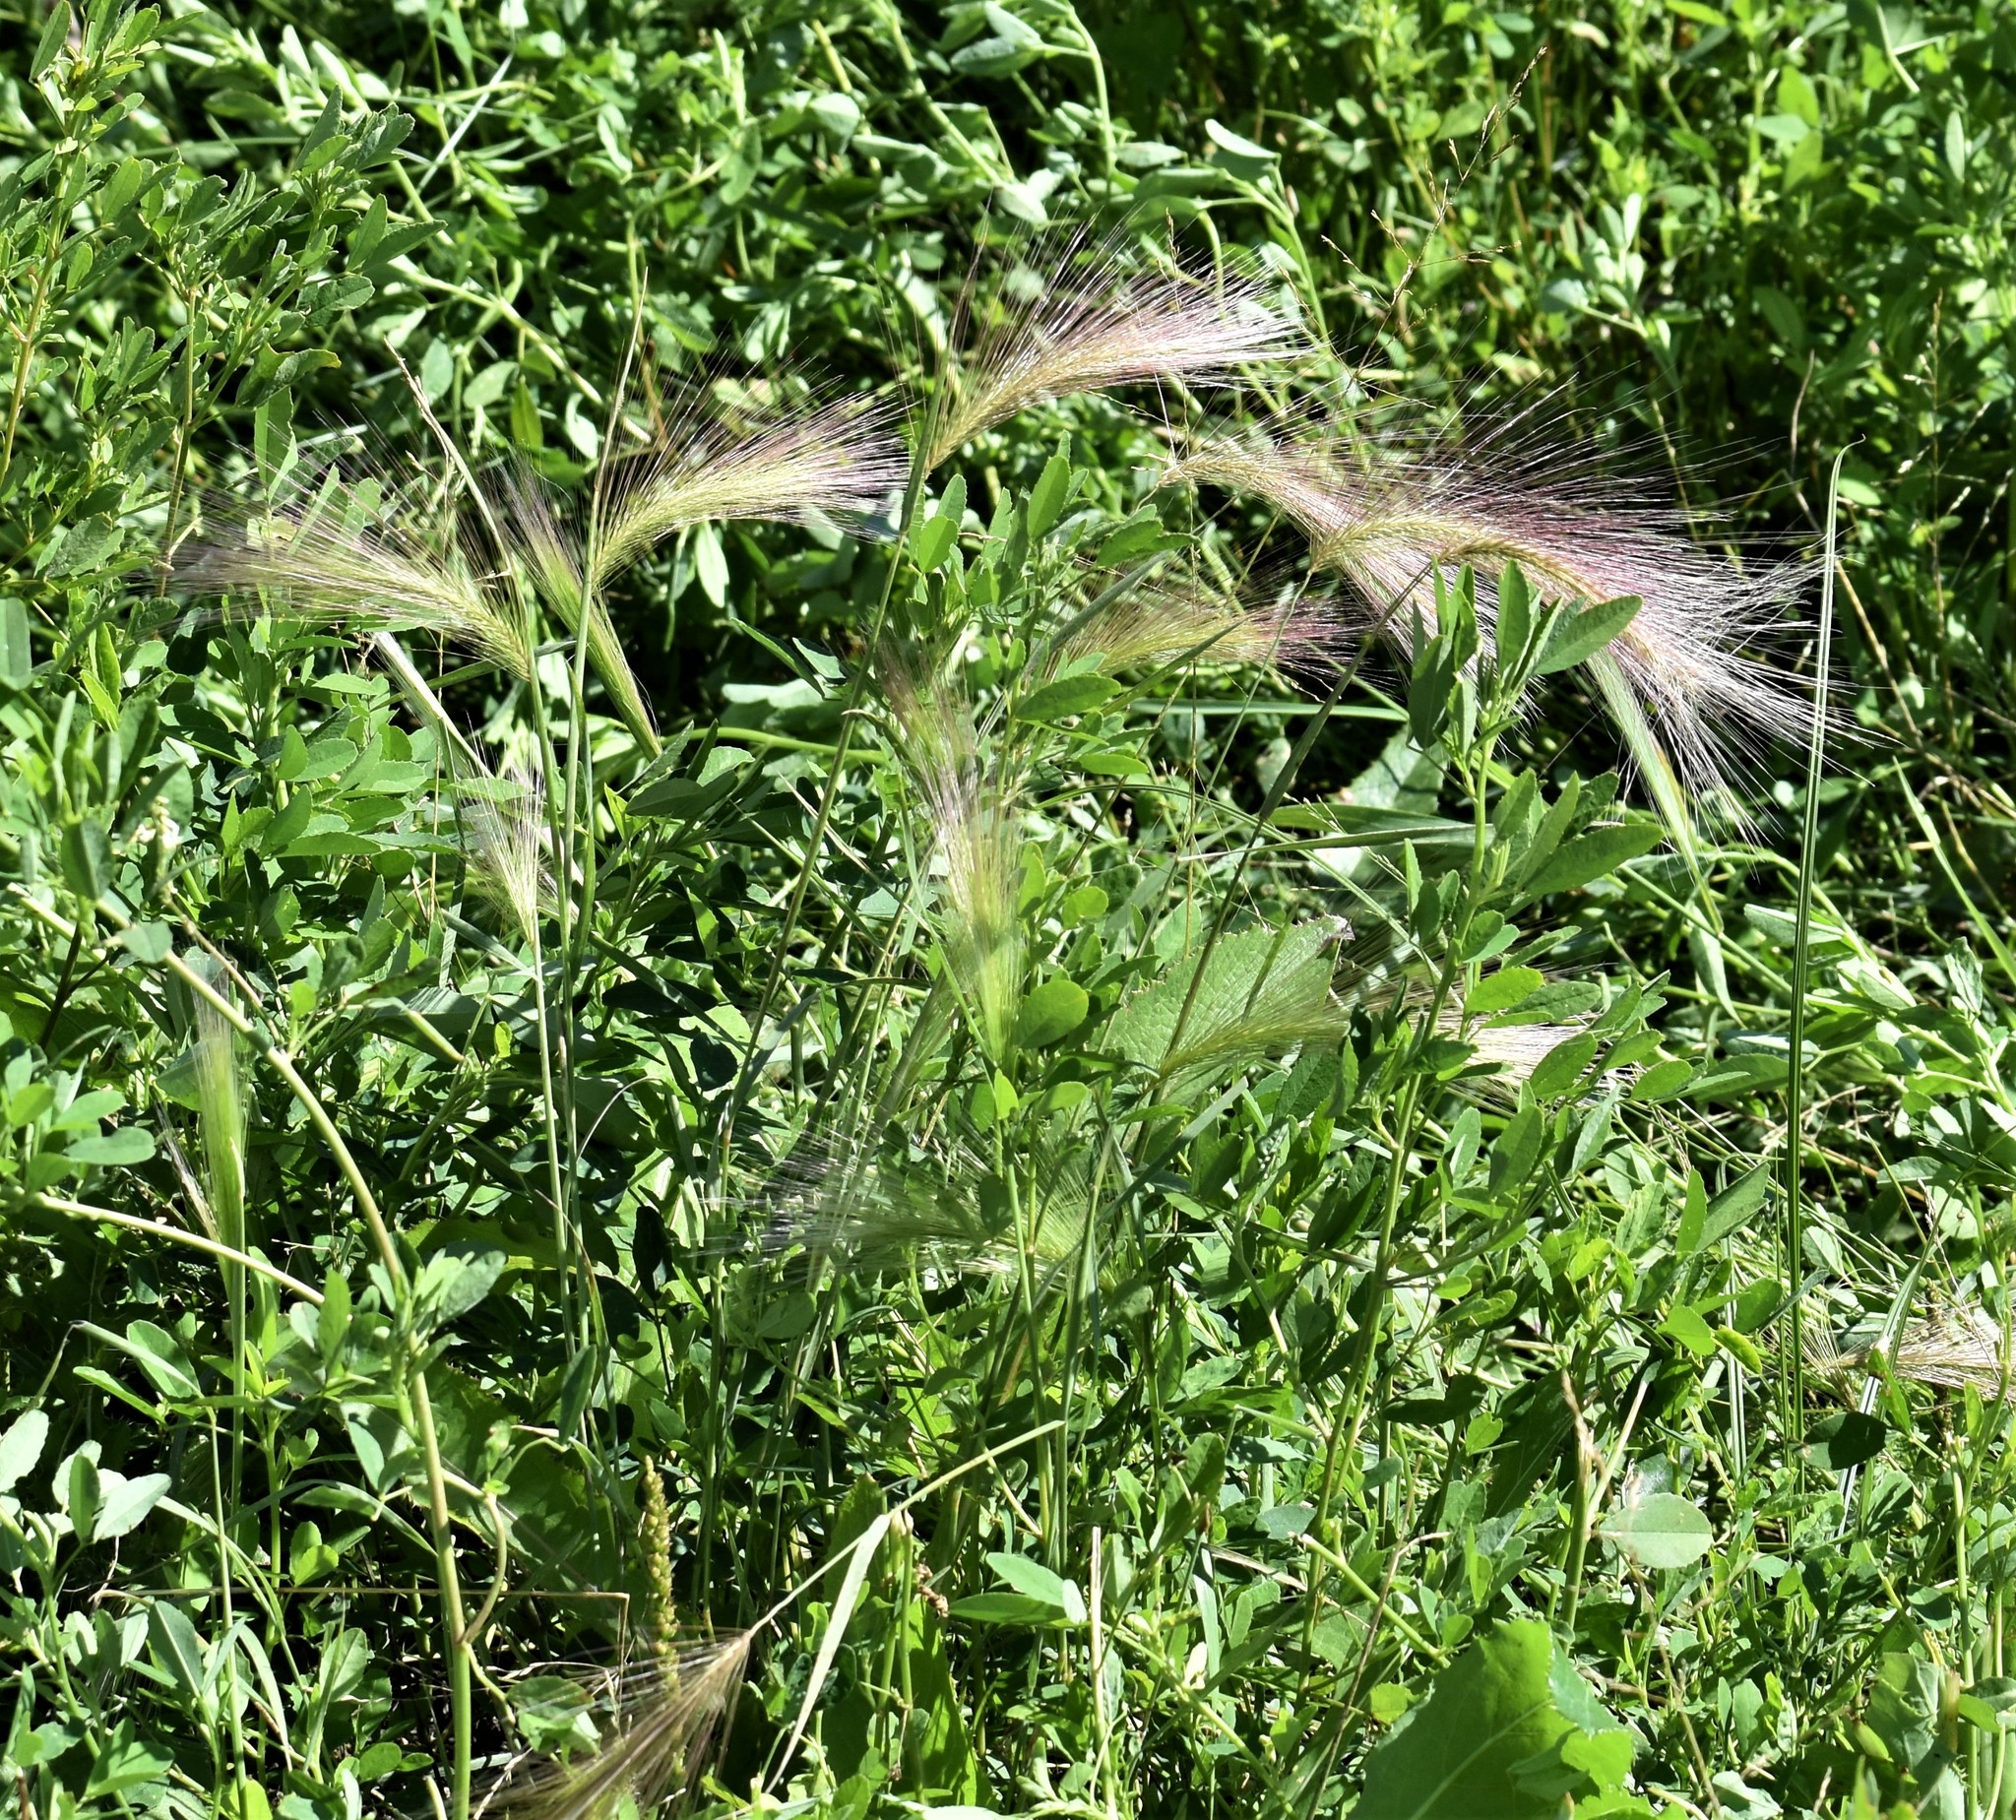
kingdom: Plantae
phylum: Tracheophyta
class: Liliopsida
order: Poales
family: Poaceae
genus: Hordeum
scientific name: Hordeum jubatum
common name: Foxtail barley
